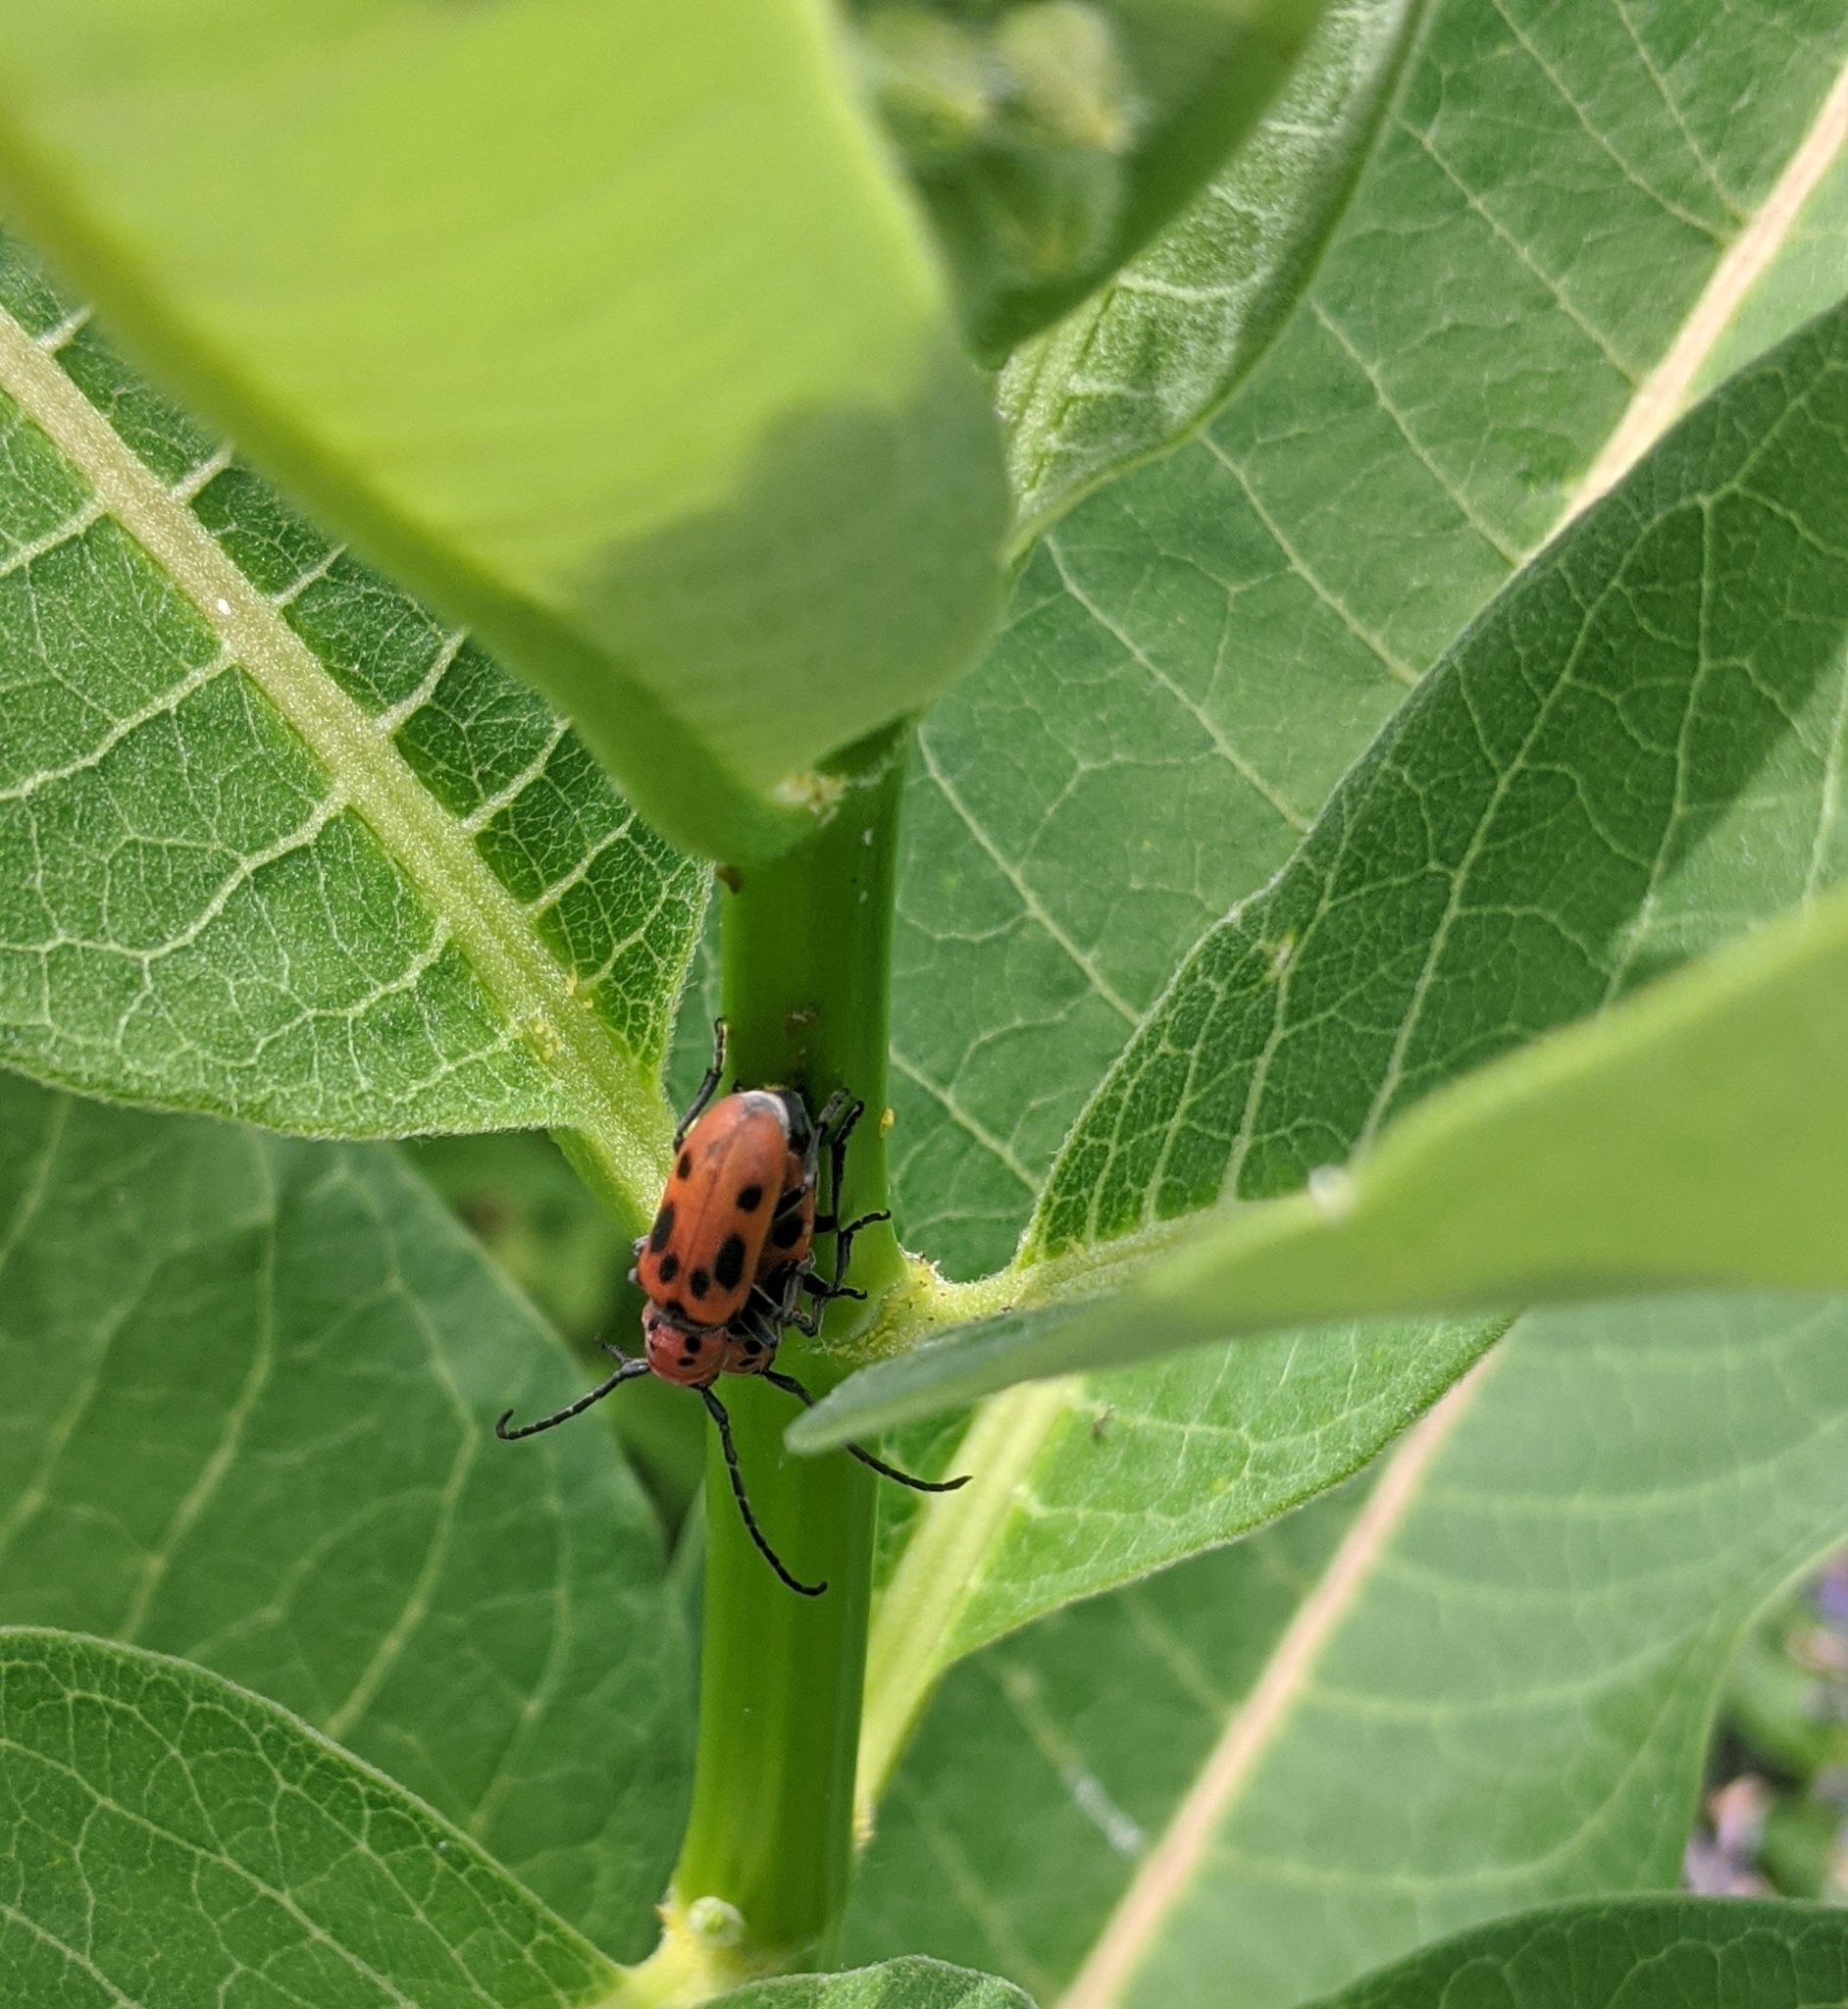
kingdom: Animalia
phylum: Arthropoda
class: Insecta
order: Coleoptera
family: Cerambycidae
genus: Tetraopes
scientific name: Tetraopes tetrophthalmus
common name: Red milkweed beetle
